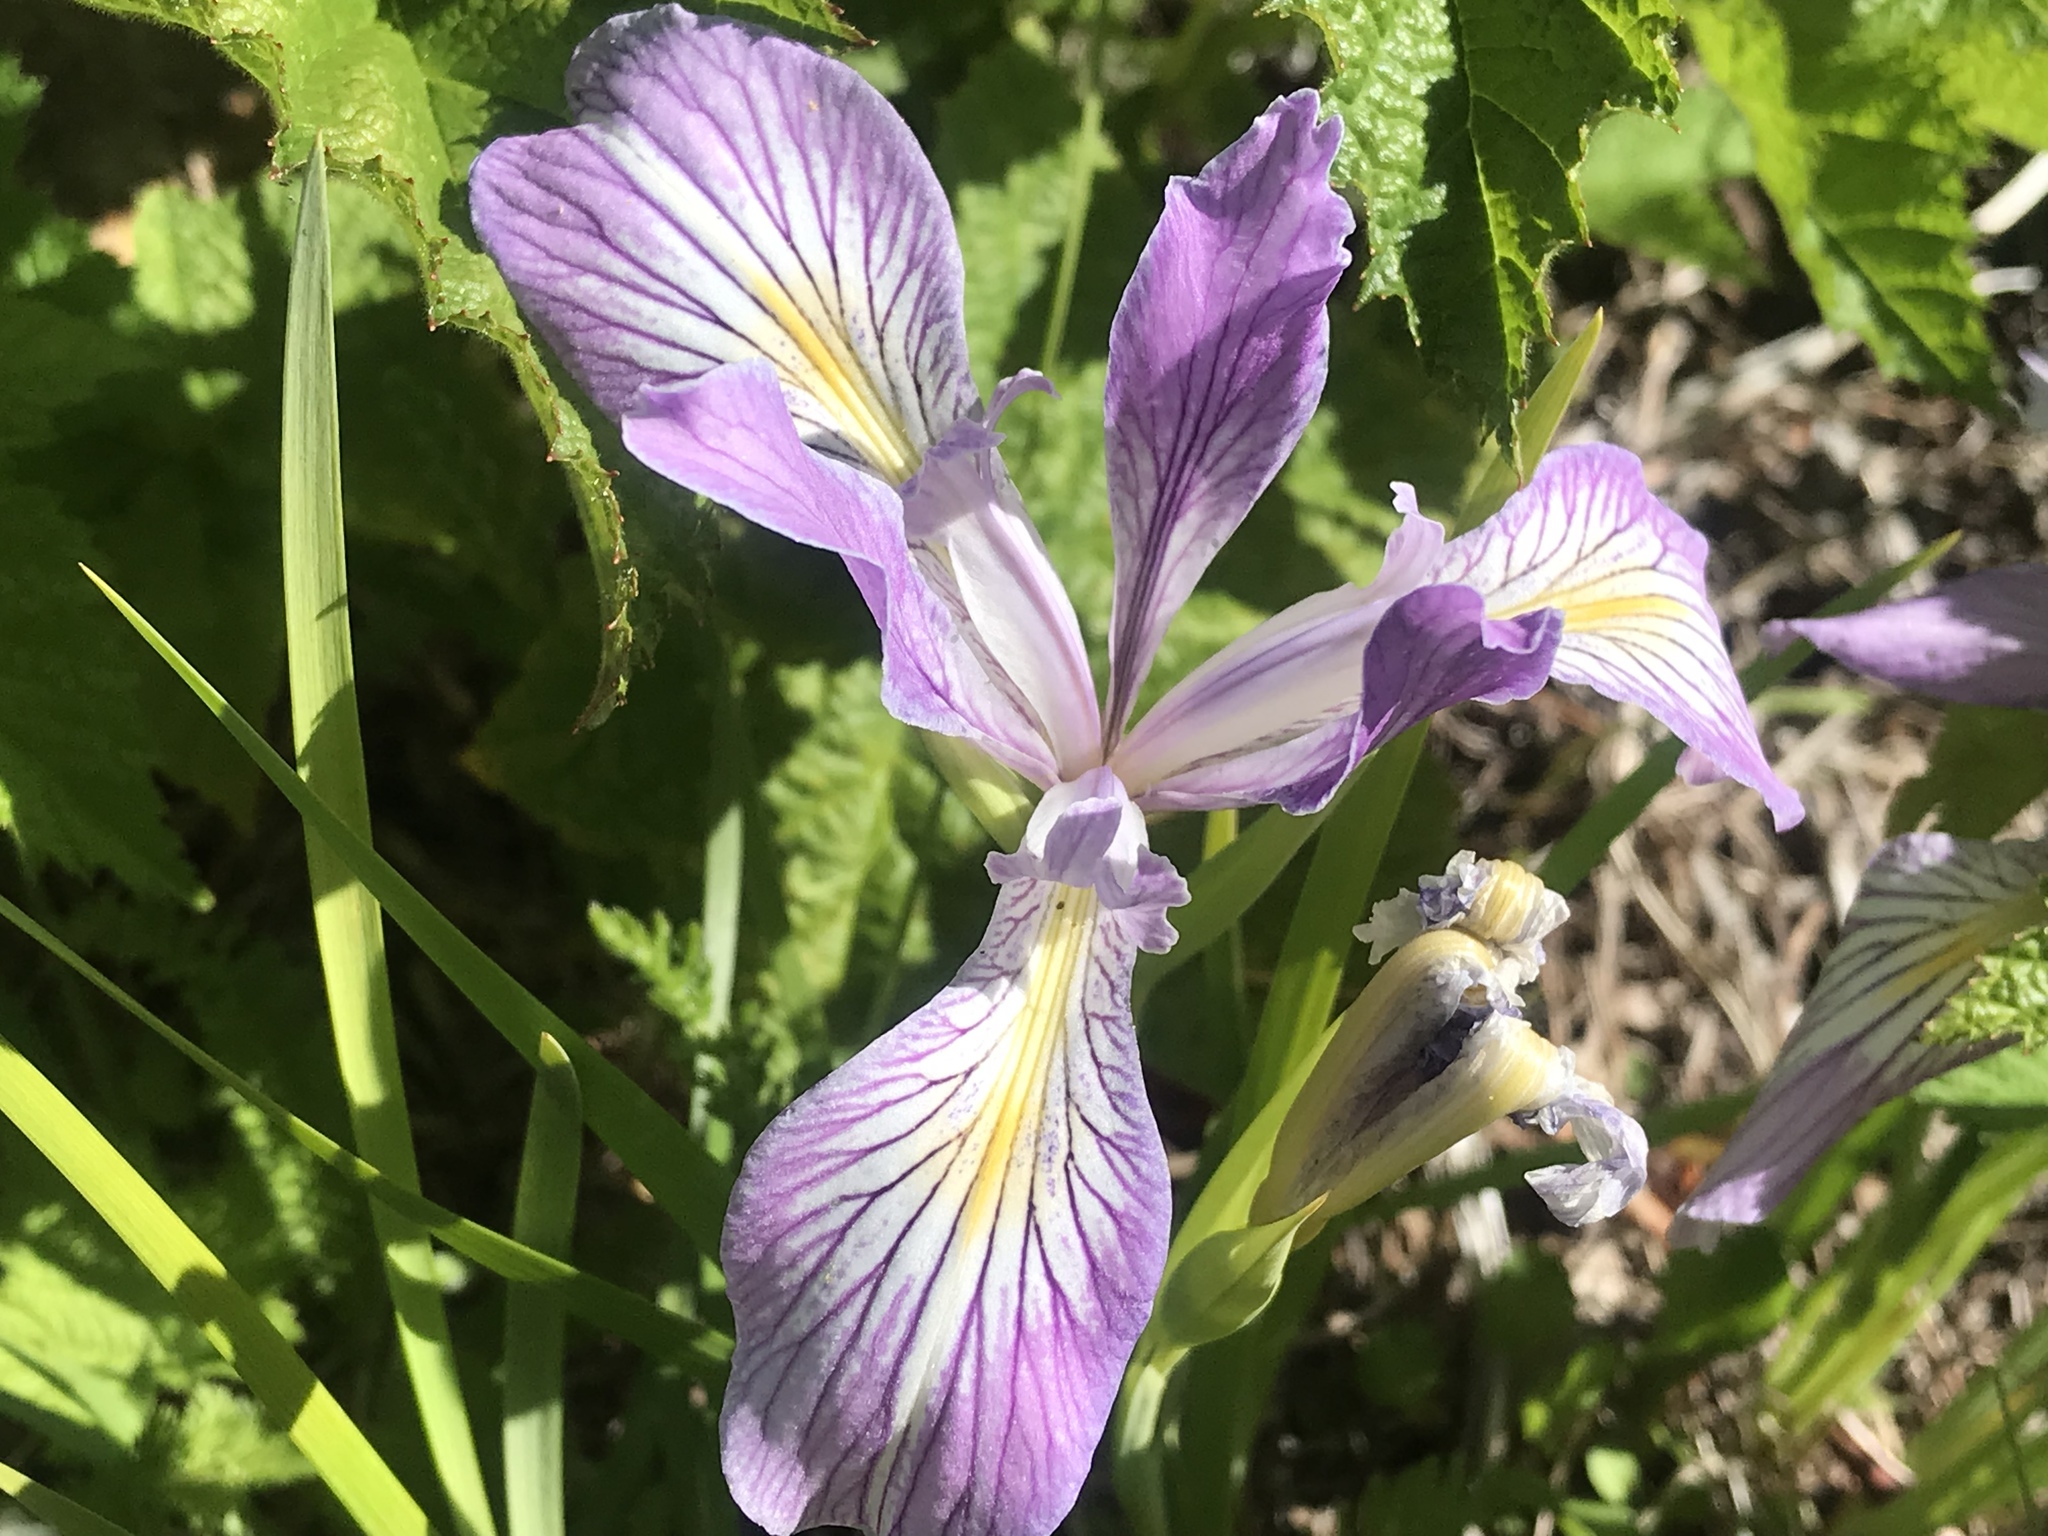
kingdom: Plantae
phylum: Tracheophyta
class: Liliopsida
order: Asparagales
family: Iridaceae
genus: Iris
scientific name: Iris tenax
